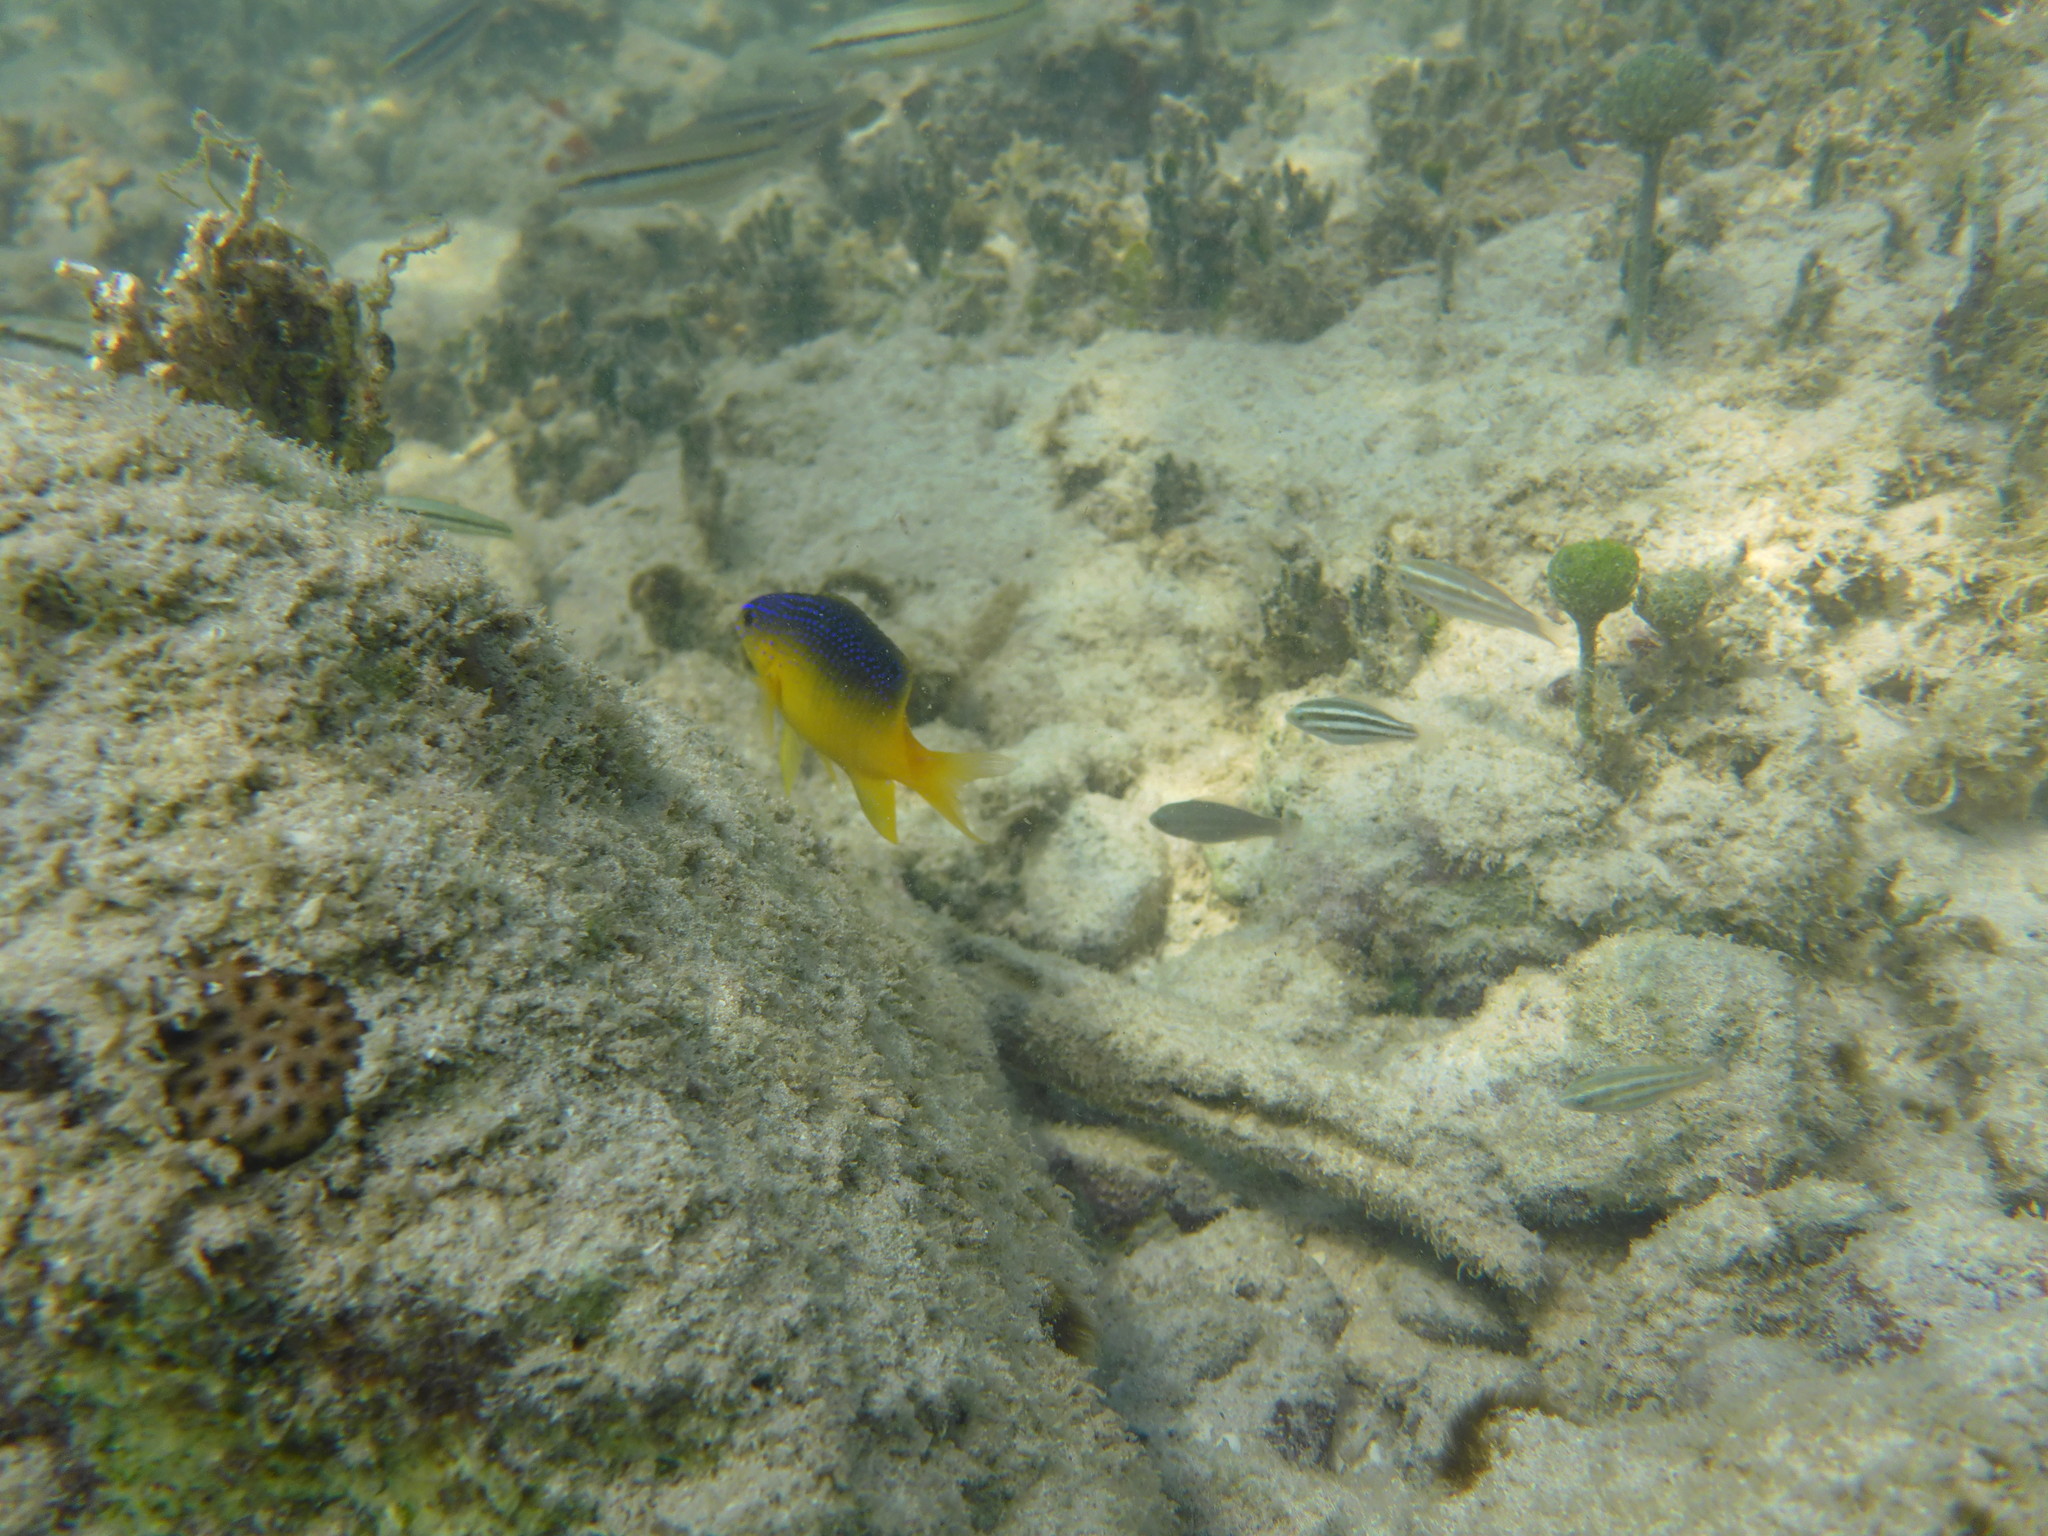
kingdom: Animalia
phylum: Chordata
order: Perciformes
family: Pomacentridae
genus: Stegastes
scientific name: Stegastes leucostictus
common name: Beaugregory
